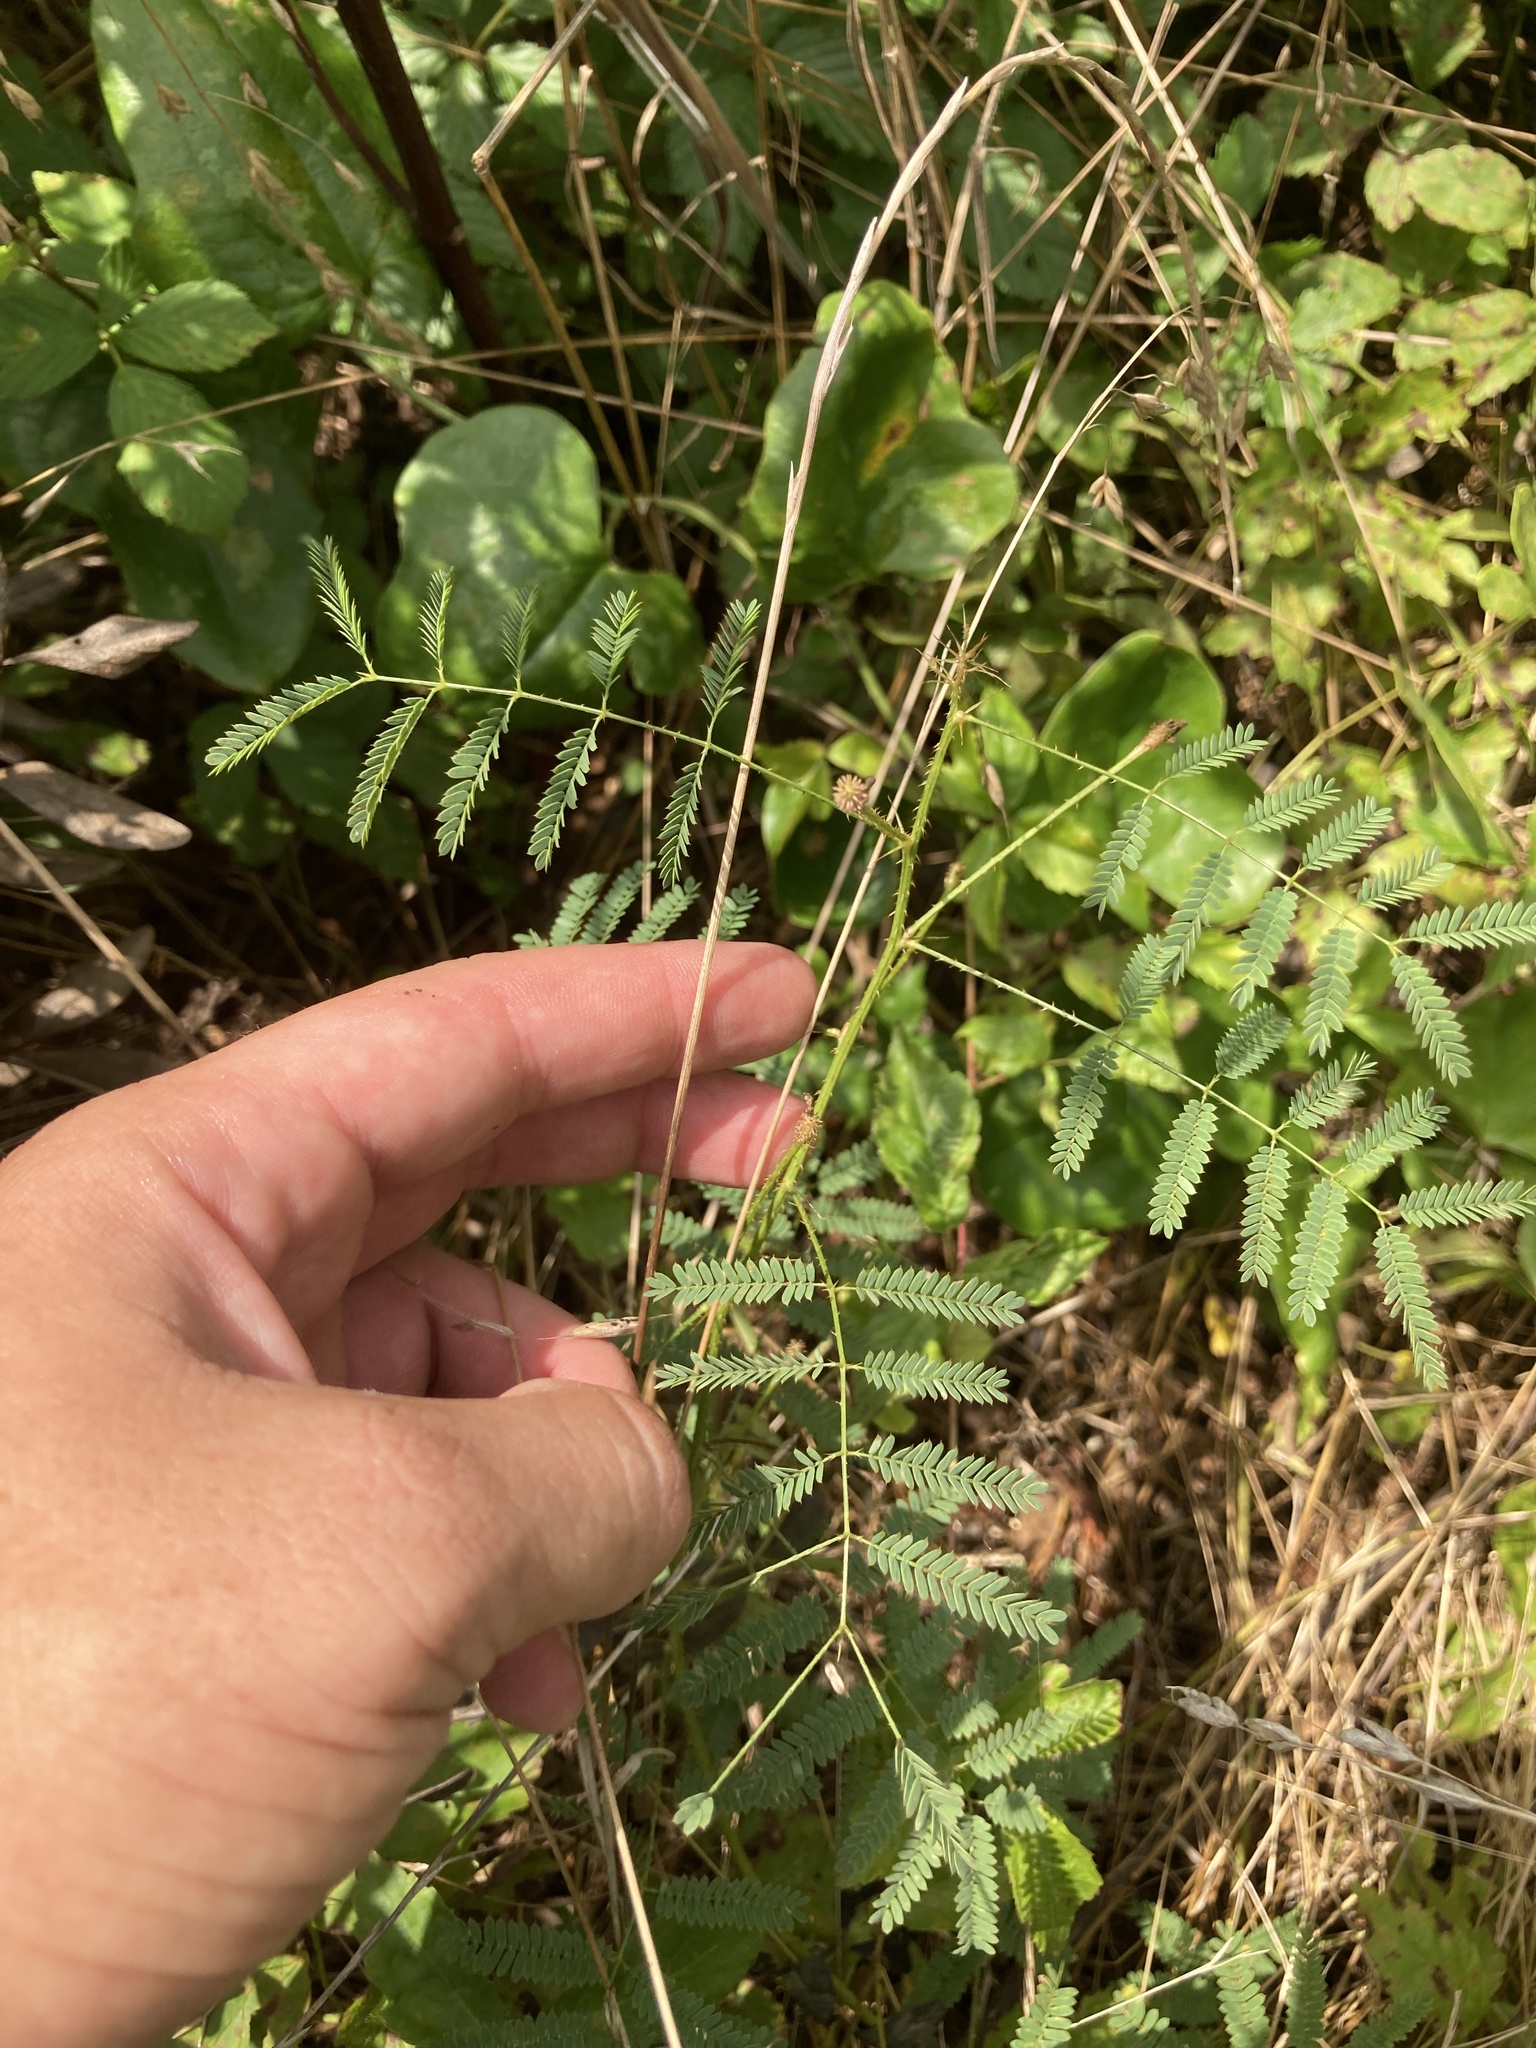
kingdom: Plantae
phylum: Tracheophyta
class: Magnoliopsida
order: Fabales
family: Fabaceae
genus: Mimosa
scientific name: Mimosa quadrivalvis
